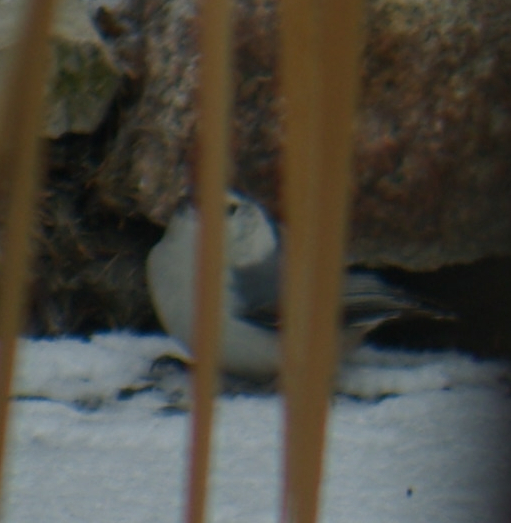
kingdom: Animalia
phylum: Chordata
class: Aves
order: Passeriformes
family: Sittidae
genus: Sitta
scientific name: Sitta carolinensis
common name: White-breasted nuthatch
